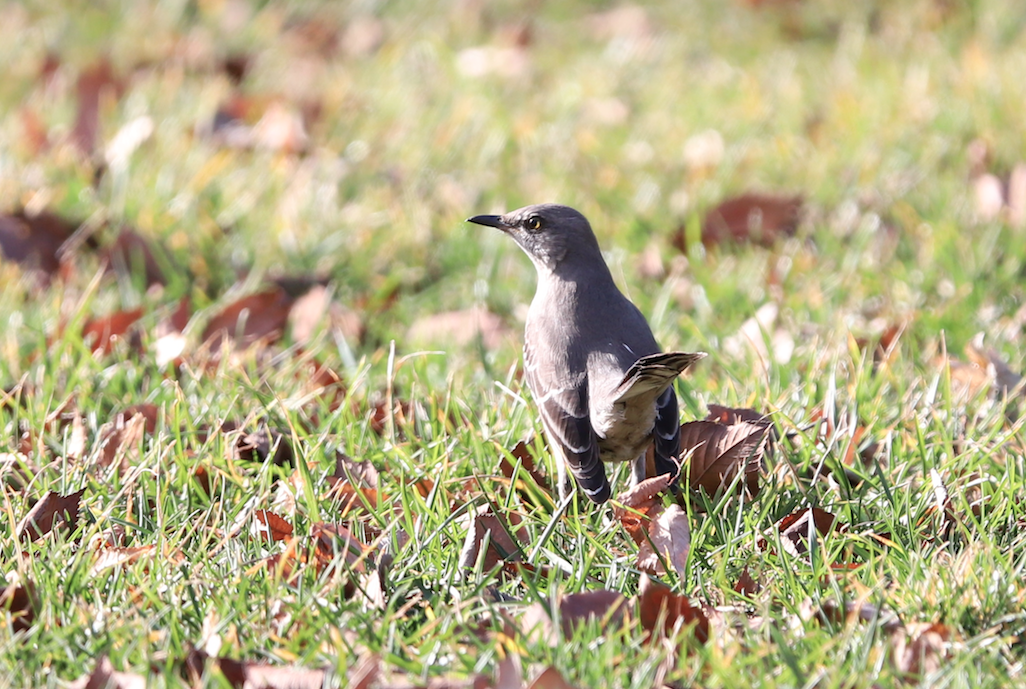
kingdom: Animalia
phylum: Chordata
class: Aves
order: Passeriformes
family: Mimidae
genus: Mimus
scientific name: Mimus polyglottos
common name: Northern mockingbird
